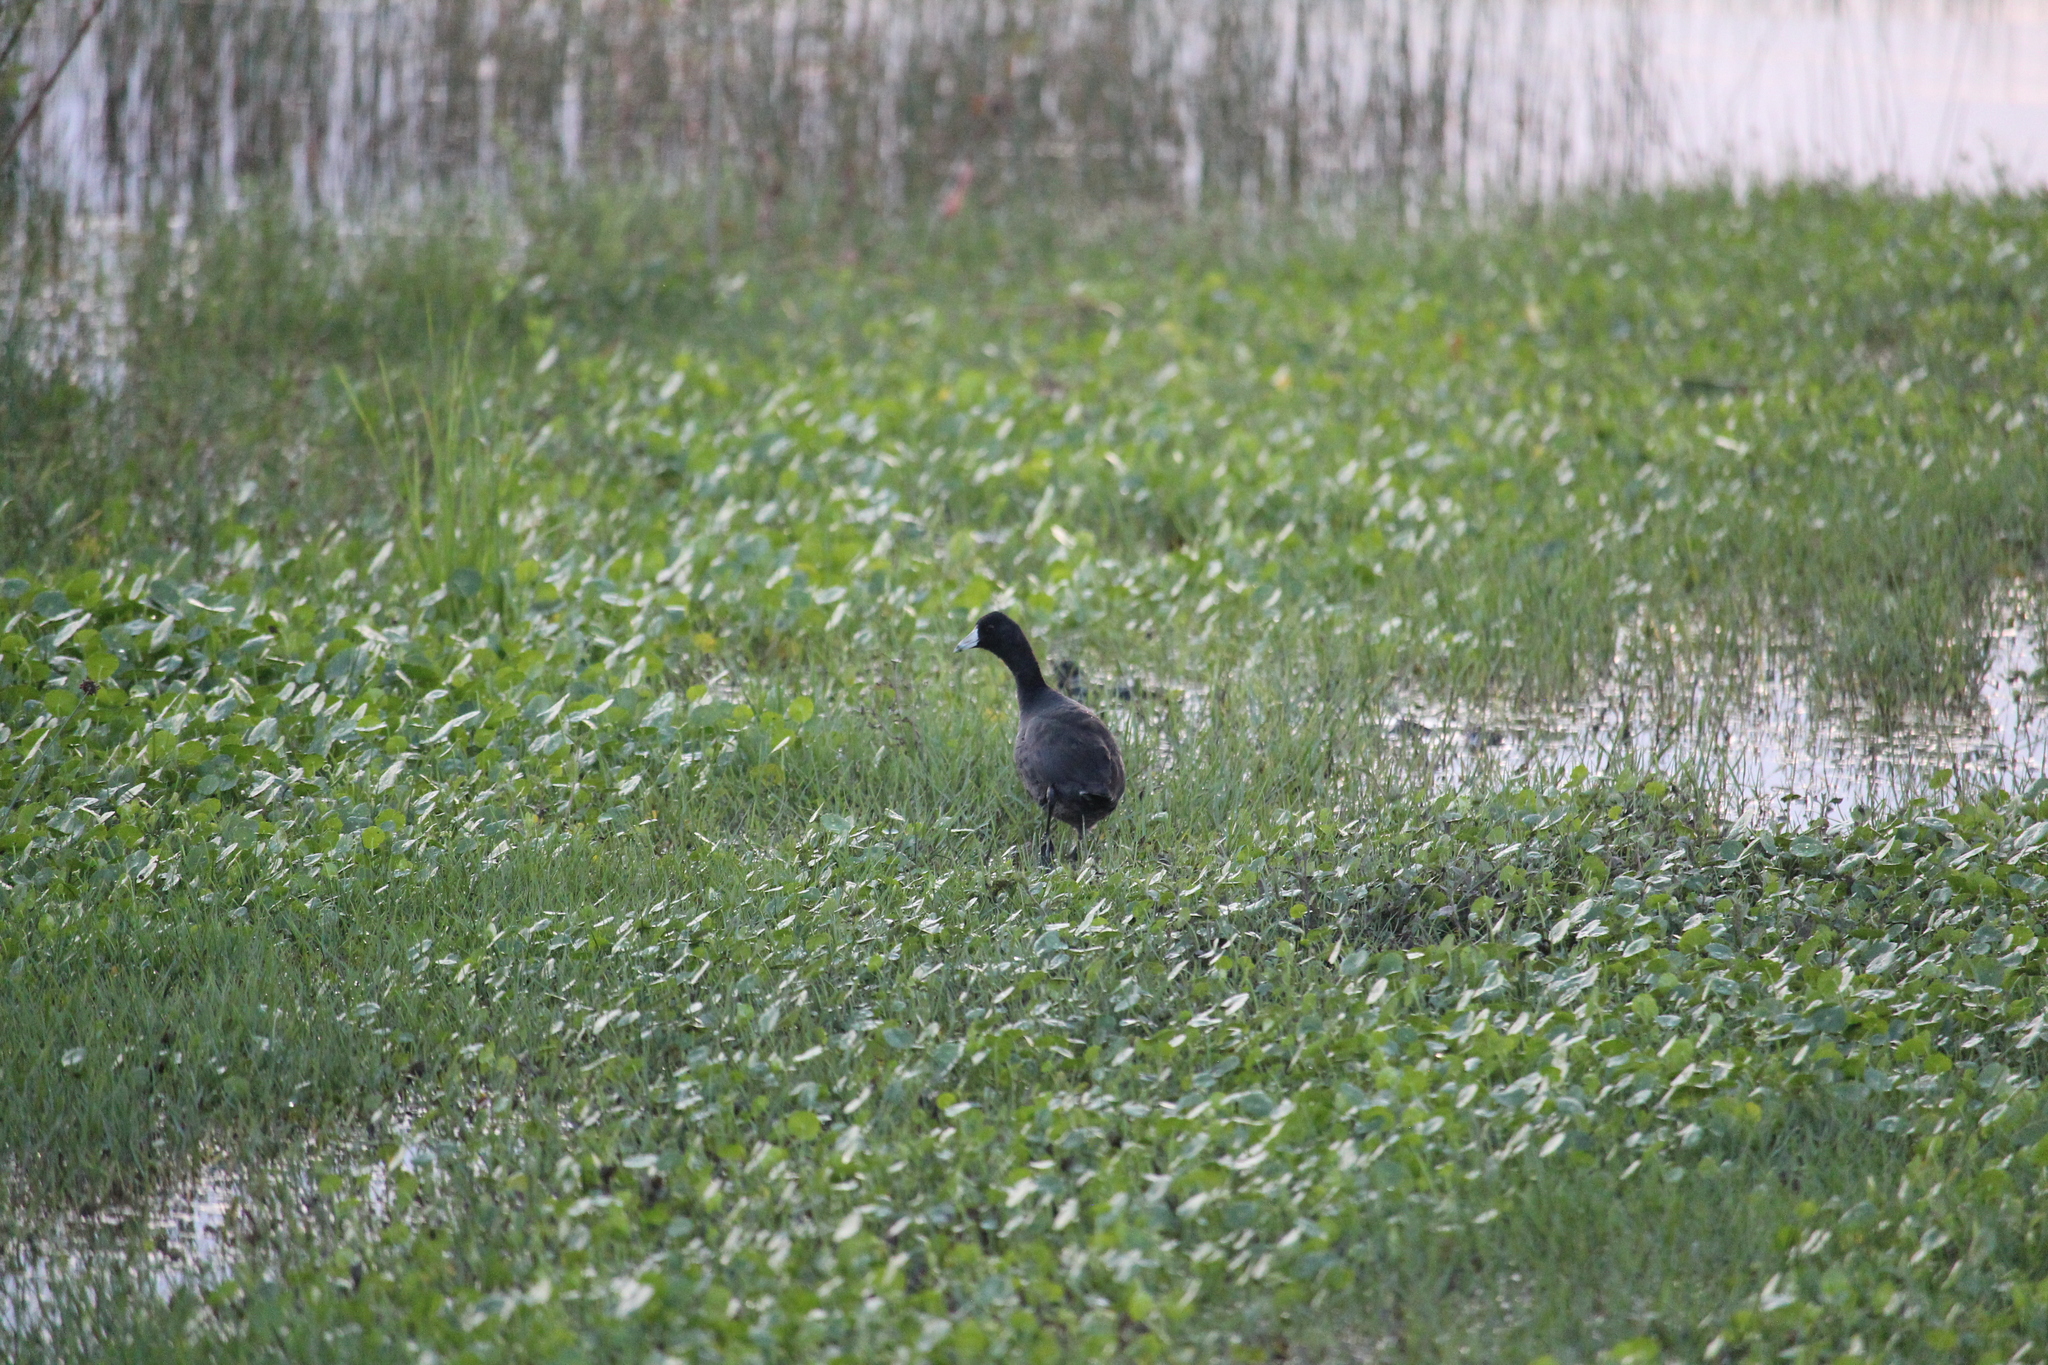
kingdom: Animalia
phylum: Chordata
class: Aves
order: Gruiformes
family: Rallidae
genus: Fulica
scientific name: Fulica americana
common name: American coot
